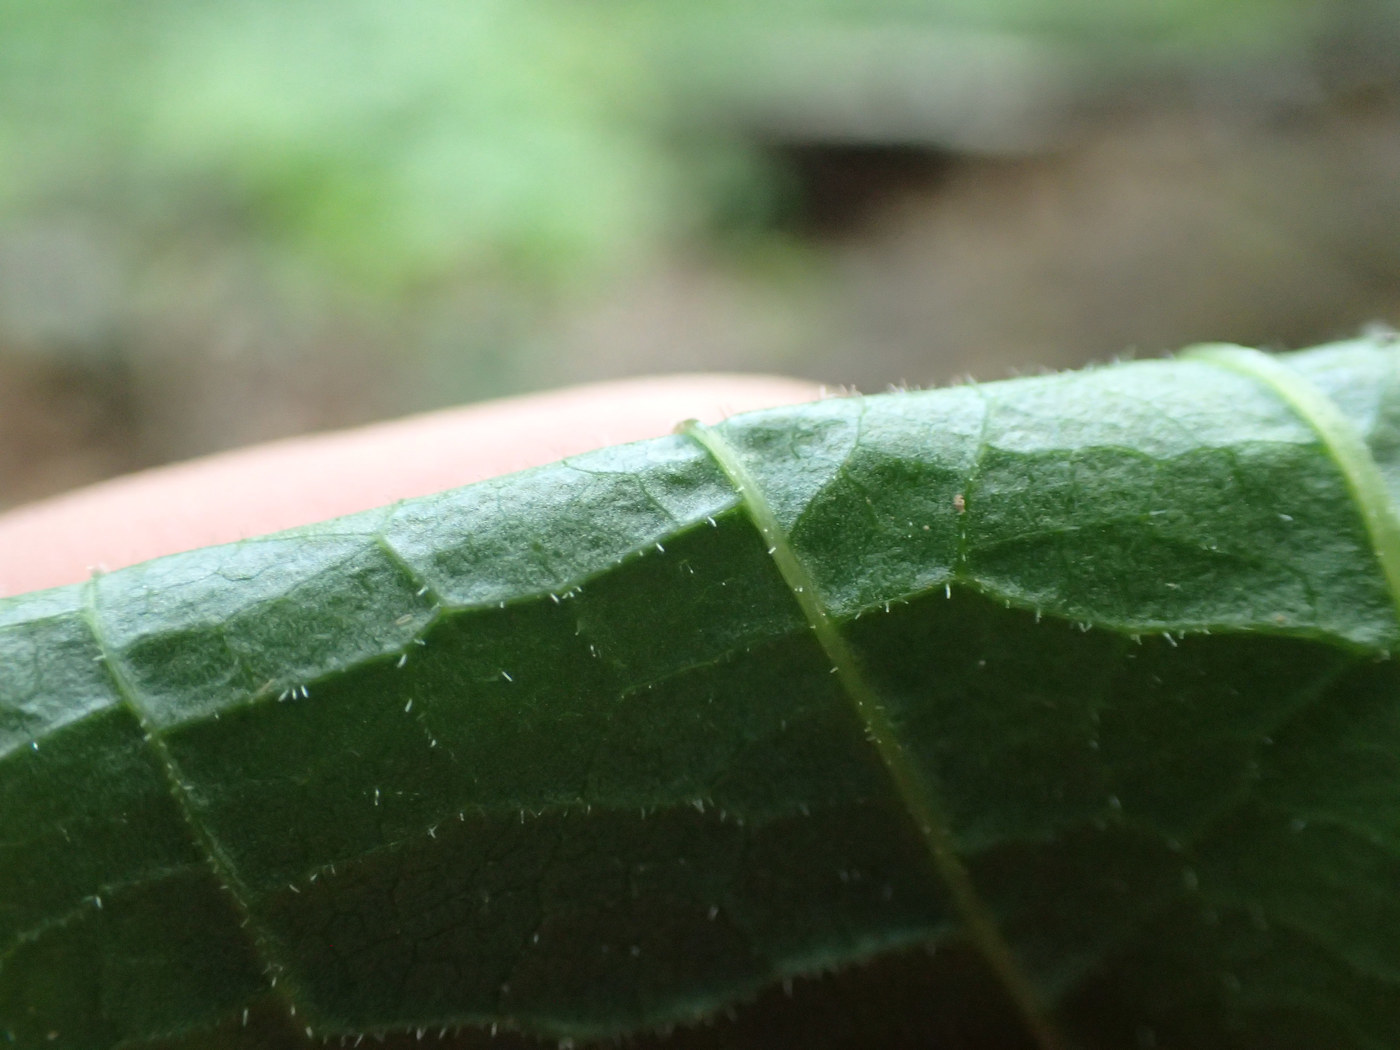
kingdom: Plantae
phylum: Tracheophyta
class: Liliopsida
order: Liliales
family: Smilacaceae
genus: Smilax
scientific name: Smilax pulverulenta
